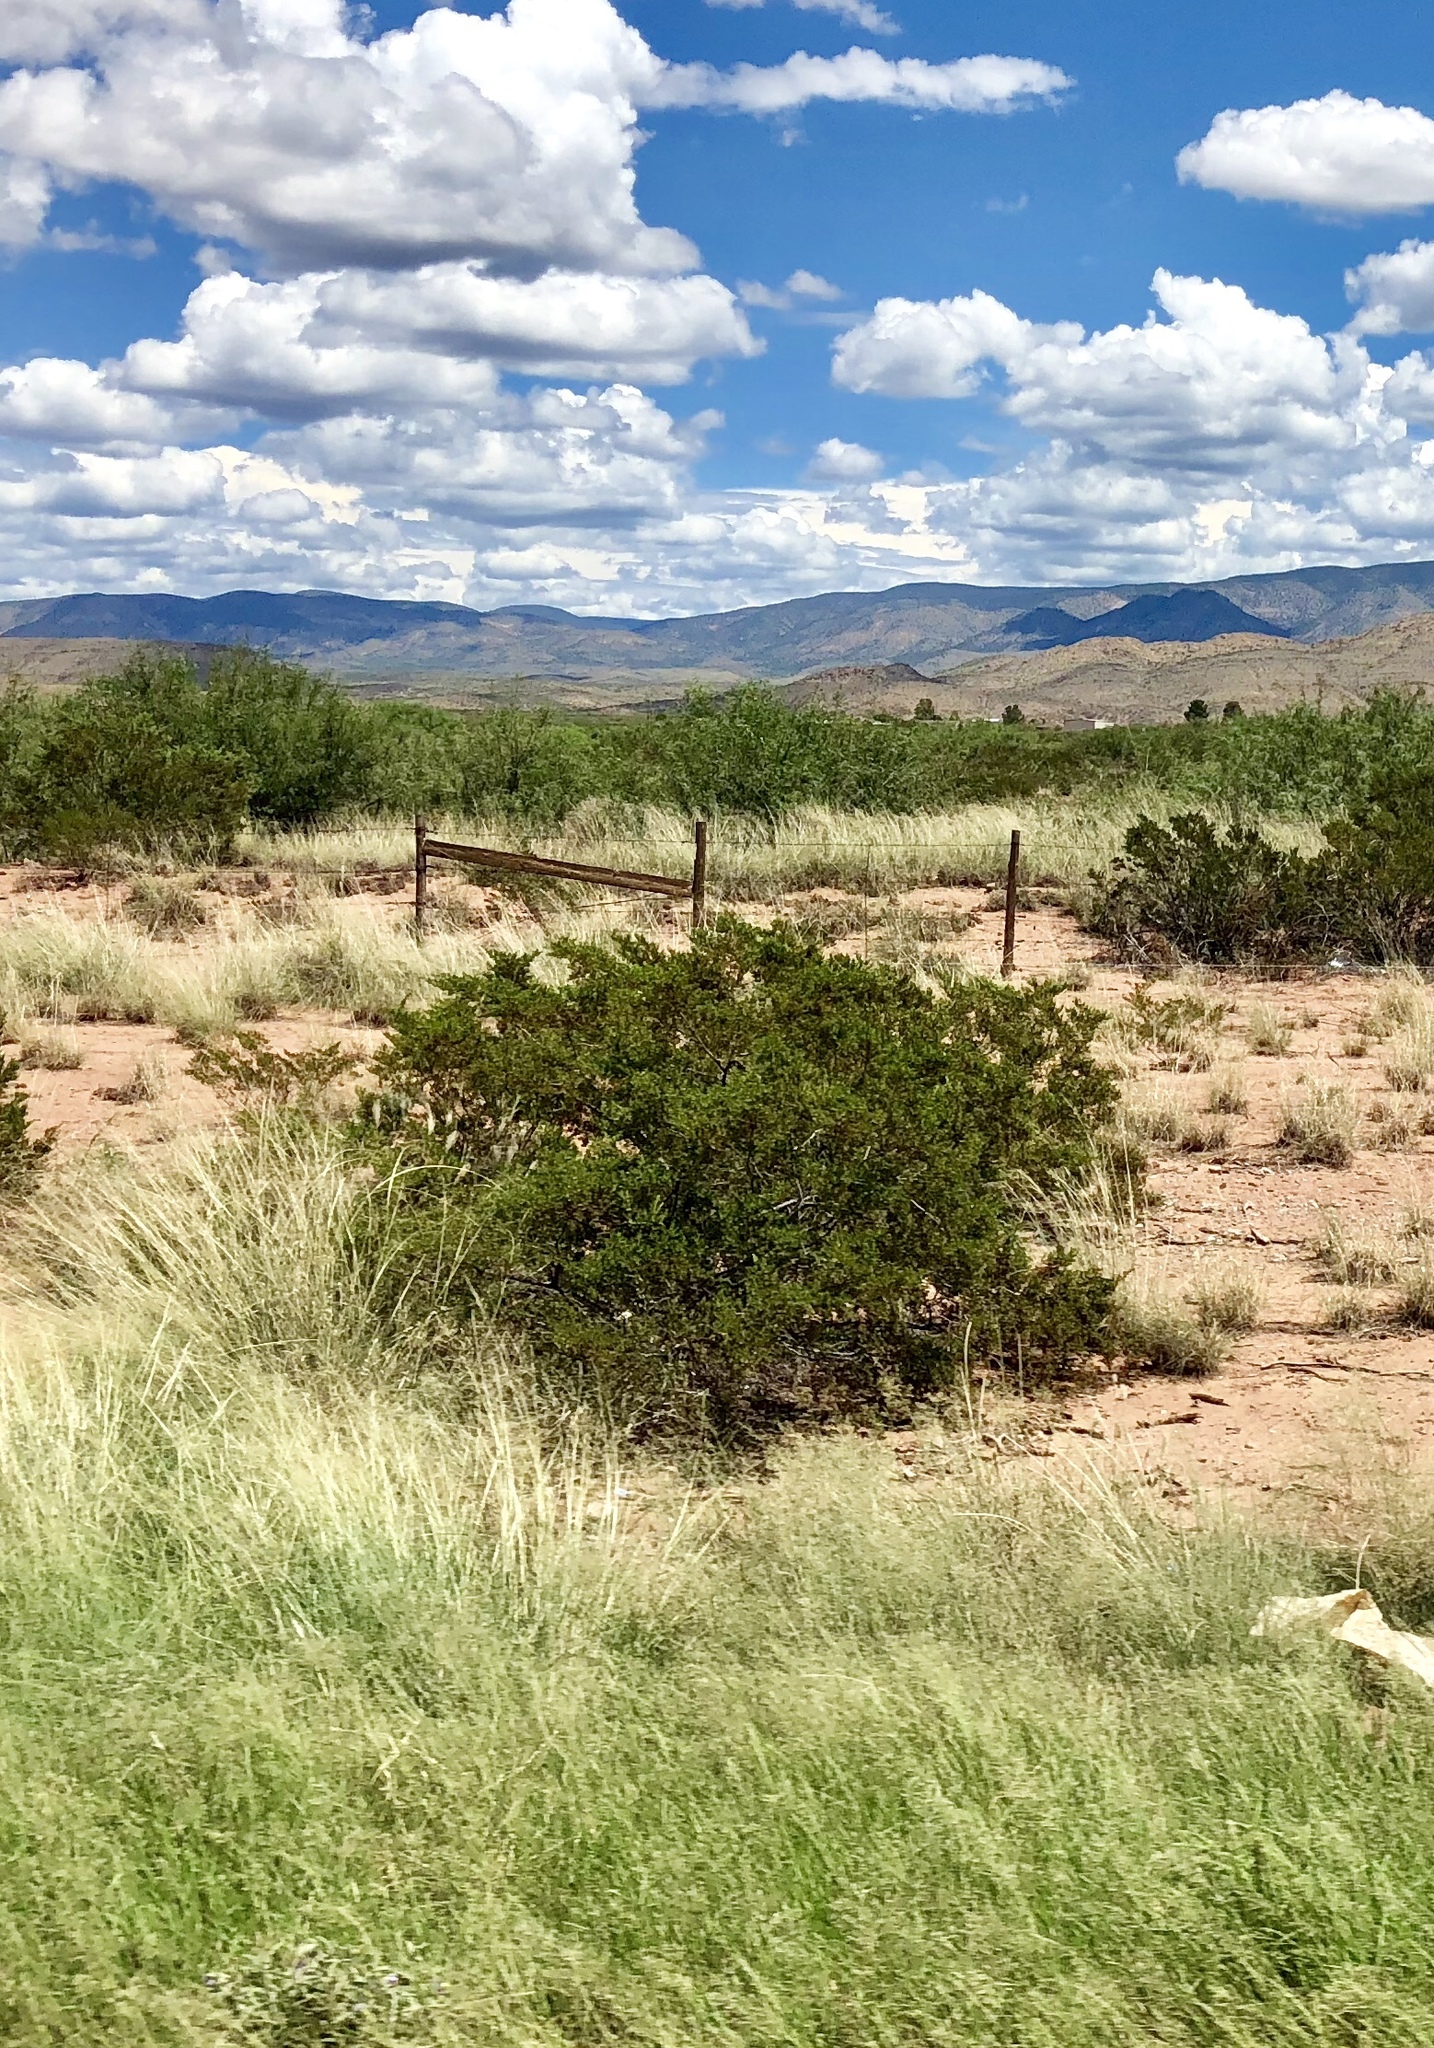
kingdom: Plantae
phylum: Tracheophyta
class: Magnoliopsida
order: Zygophyllales
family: Zygophyllaceae
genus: Larrea
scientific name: Larrea tridentata
